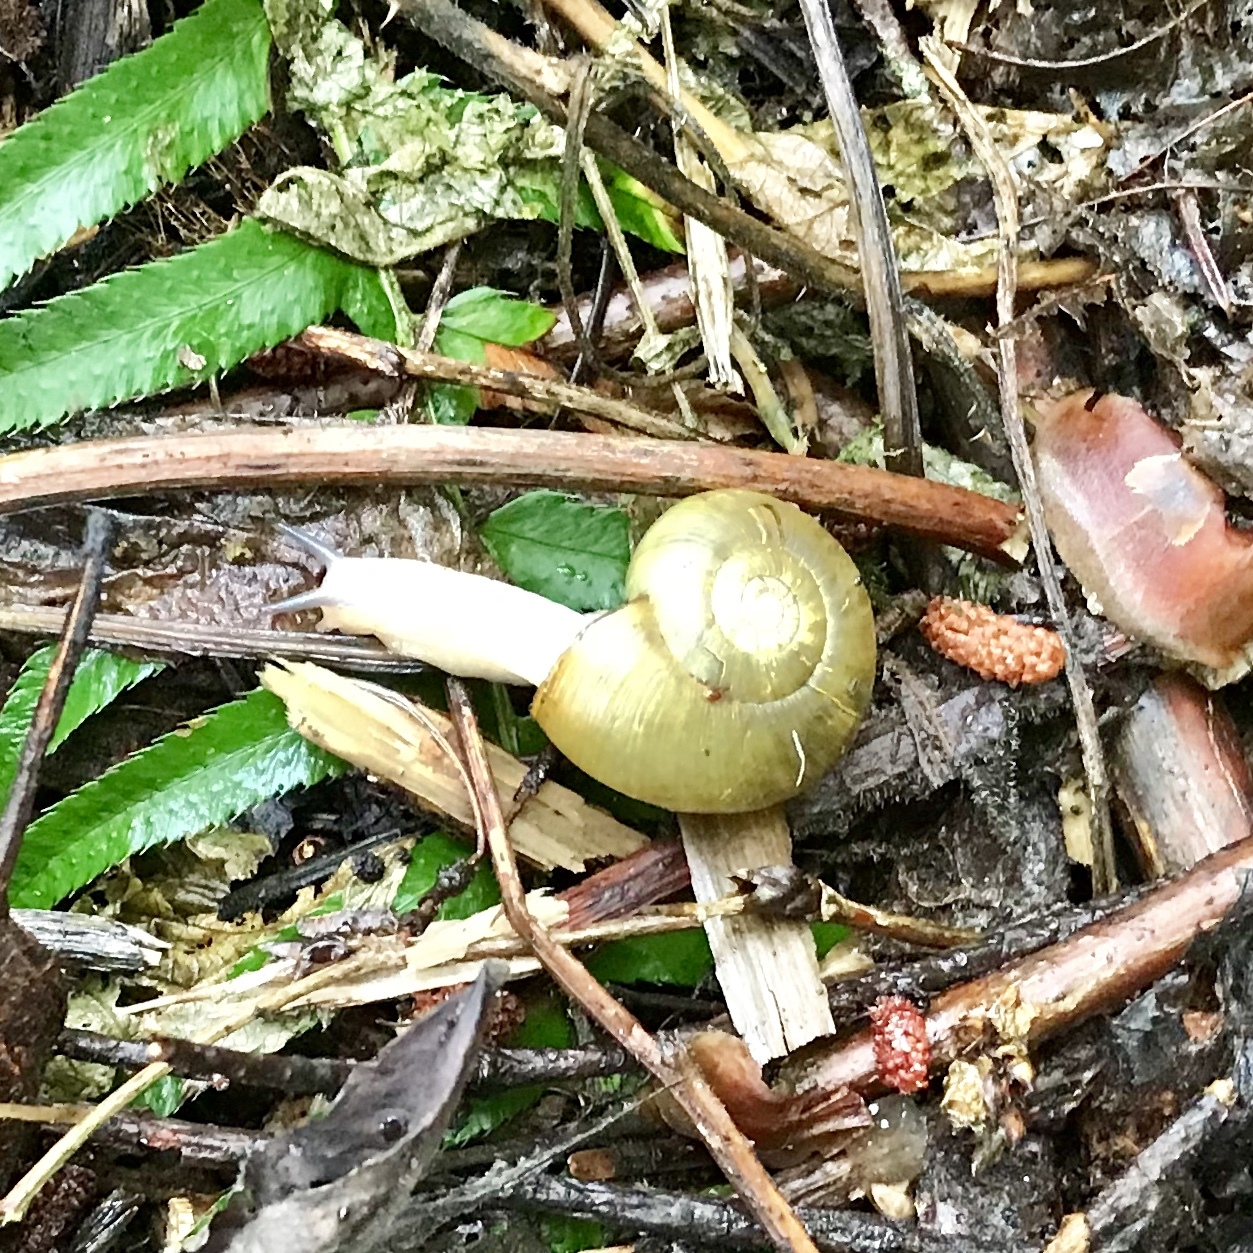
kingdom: Animalia
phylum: Mollusca
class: Gastropoda
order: Stylommatophora
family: Haplotrematidae
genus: Haplotrema
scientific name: Haplotrema vancouverense
